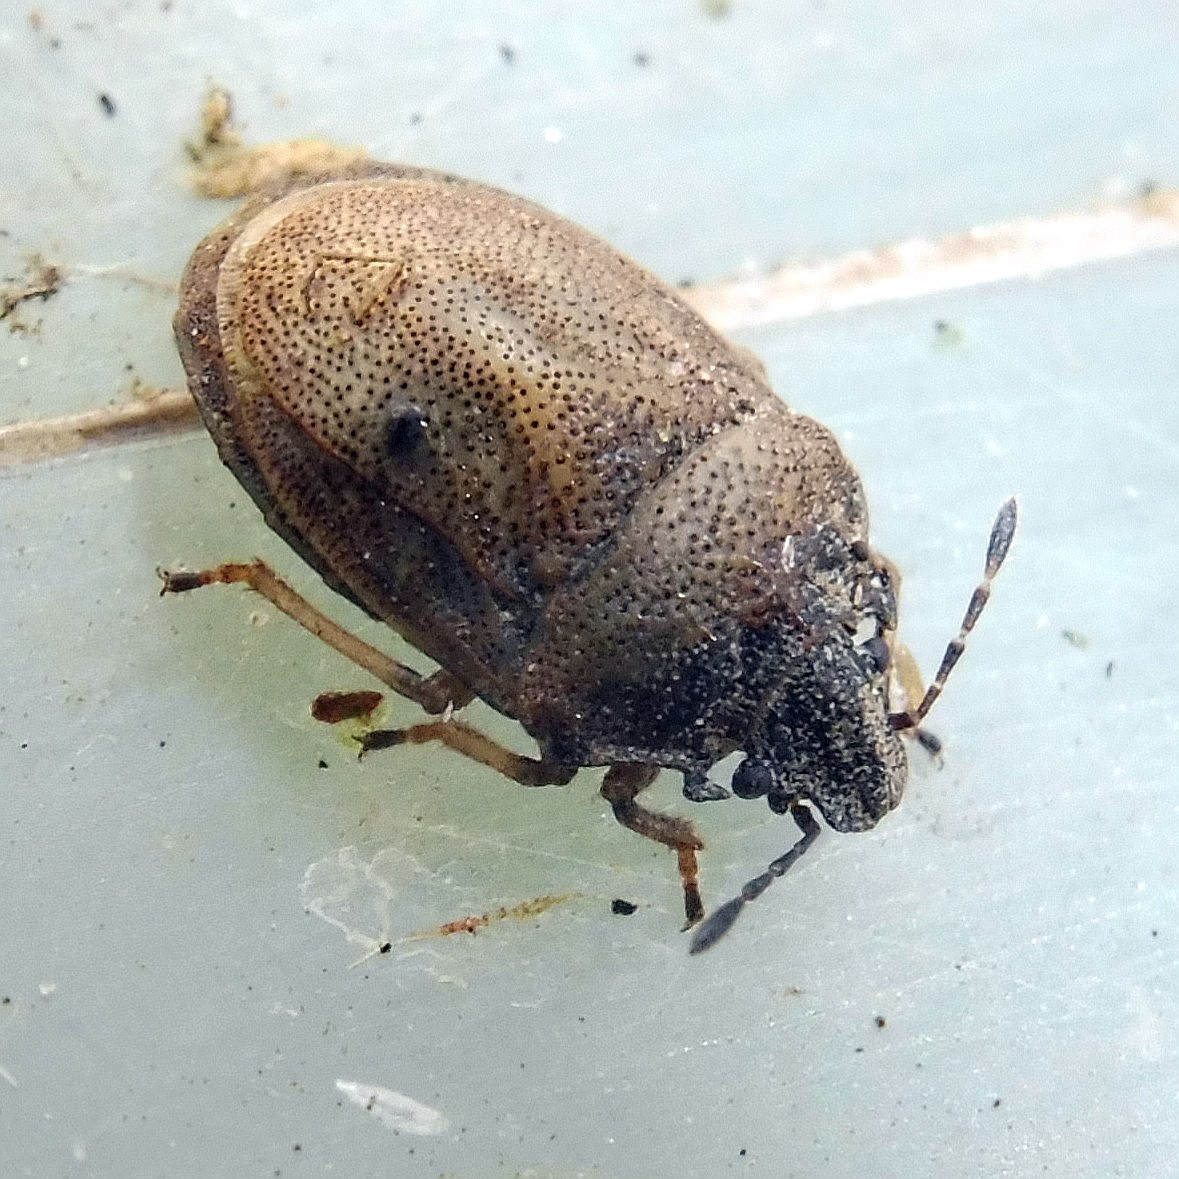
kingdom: Animalia
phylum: Arthropoda
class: Insecta
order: Hemiptera
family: Pentatomidae
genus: Podops
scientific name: Podops inunctus
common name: Turtle bug
